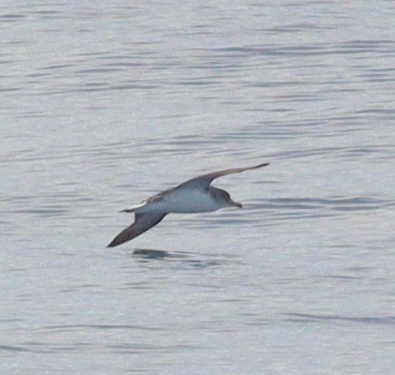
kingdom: Animalia
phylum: Chordata
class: Aves
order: Procellariiformes
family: Procellariidae
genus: Calonectris
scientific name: Calonectris diomedea
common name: Cory's shearwater
